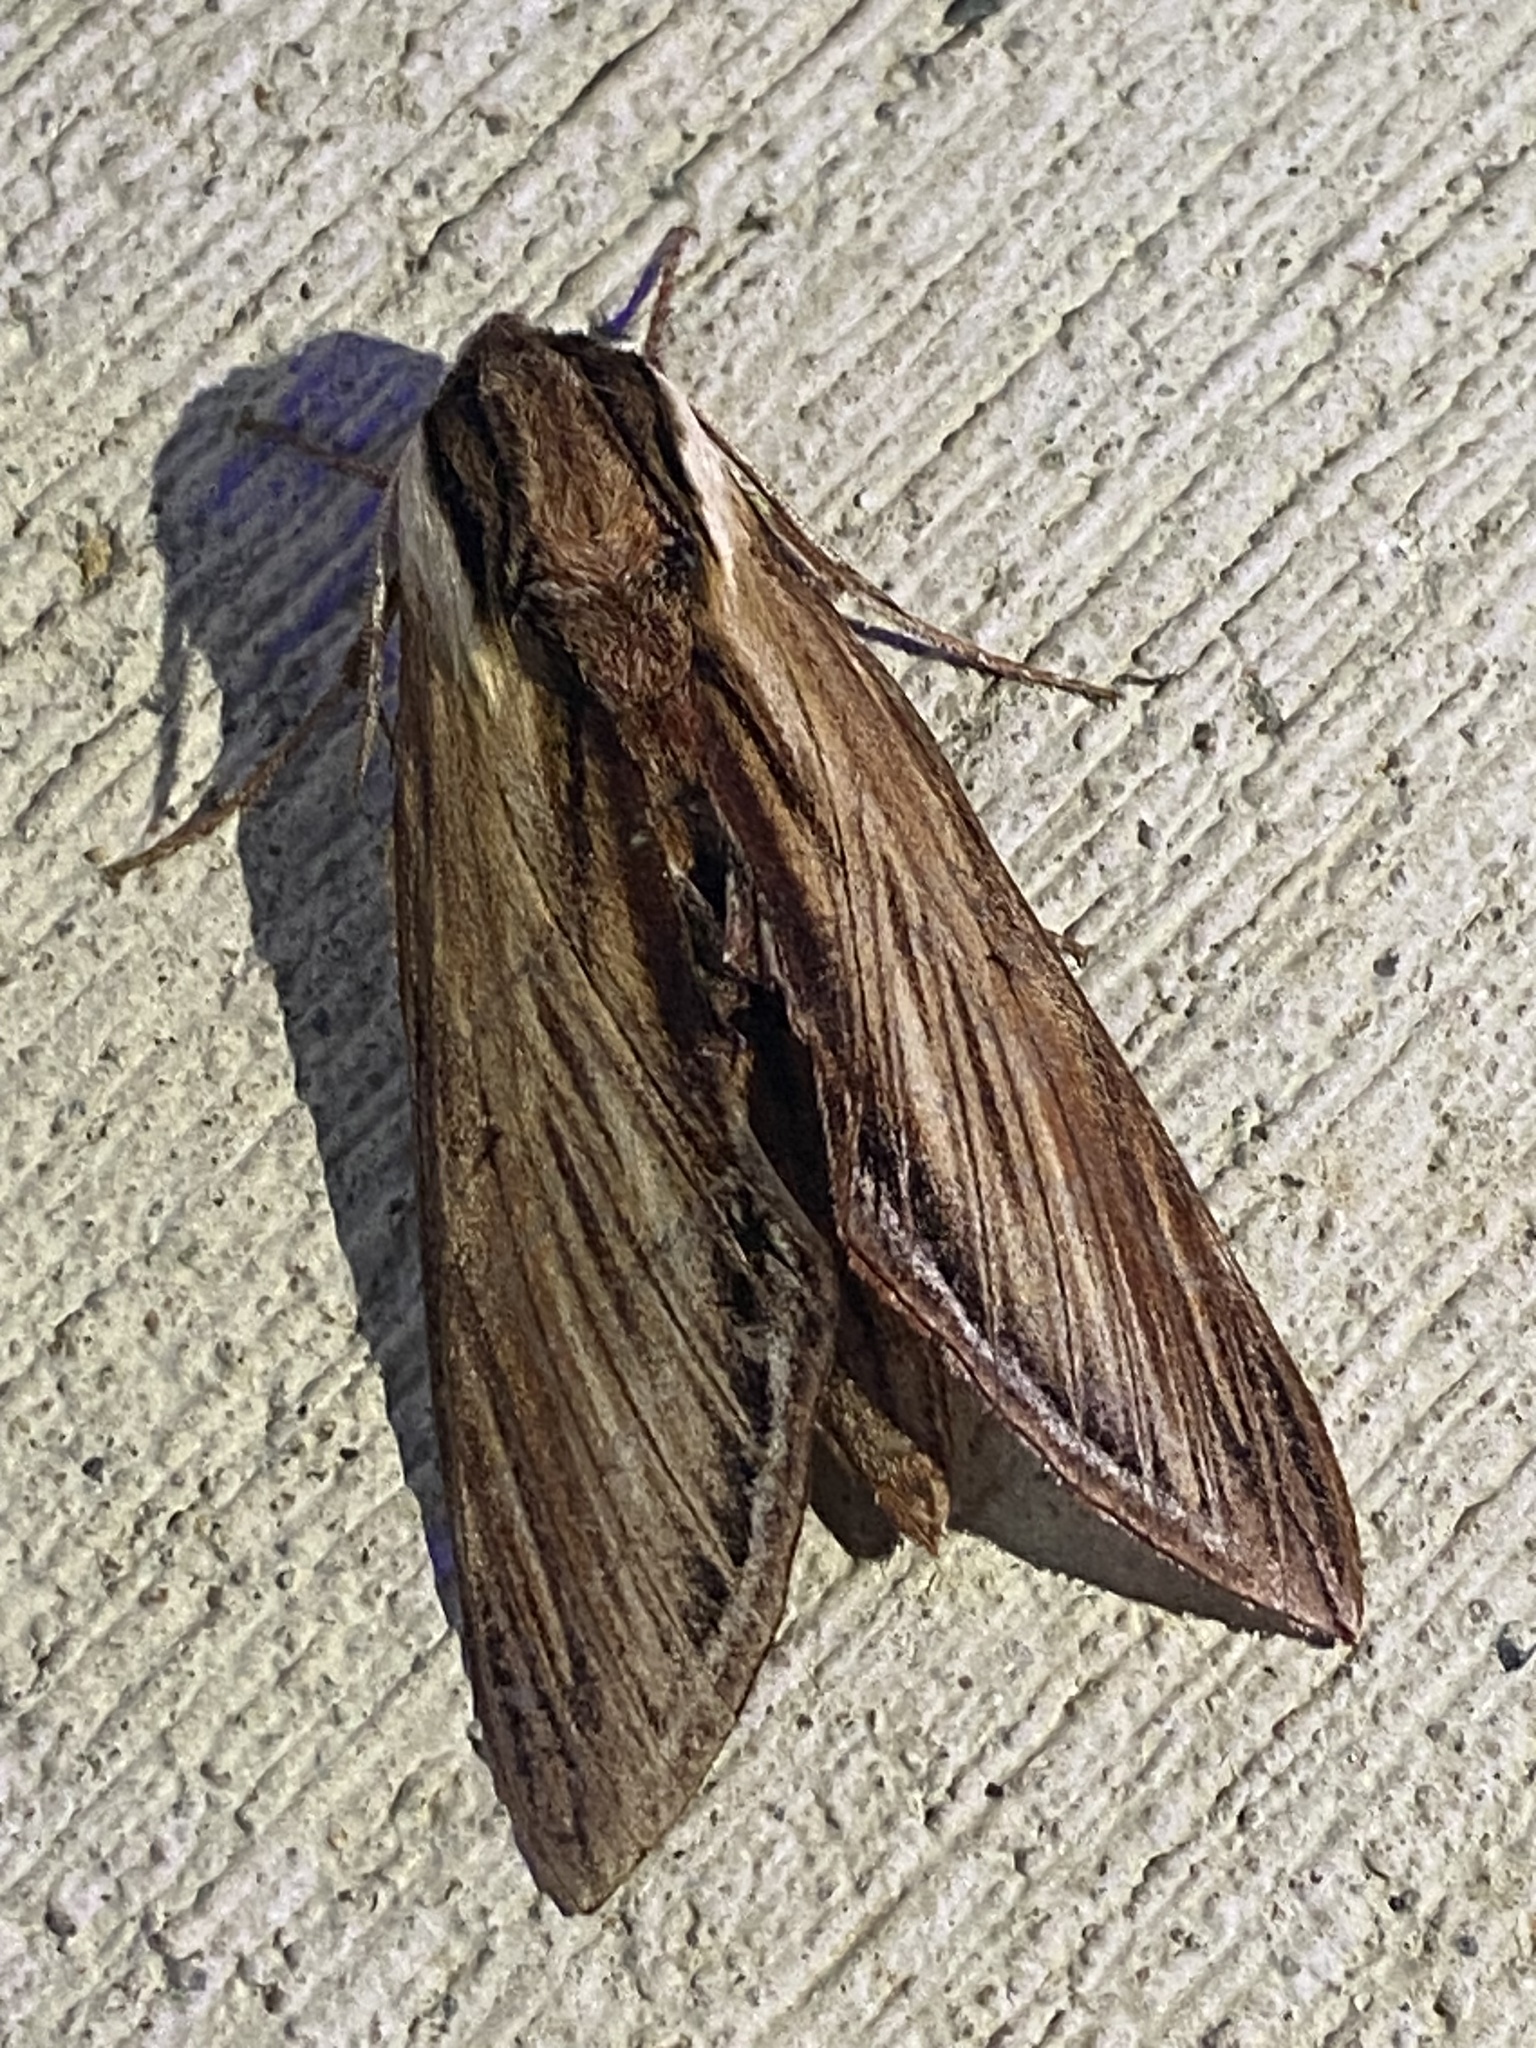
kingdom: Animalia
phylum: Arthropoda
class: Insecta
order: Lepidoptera
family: Sphingidae
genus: Sphinx
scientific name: Sphinx kalmiae
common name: Laurel sphinx
